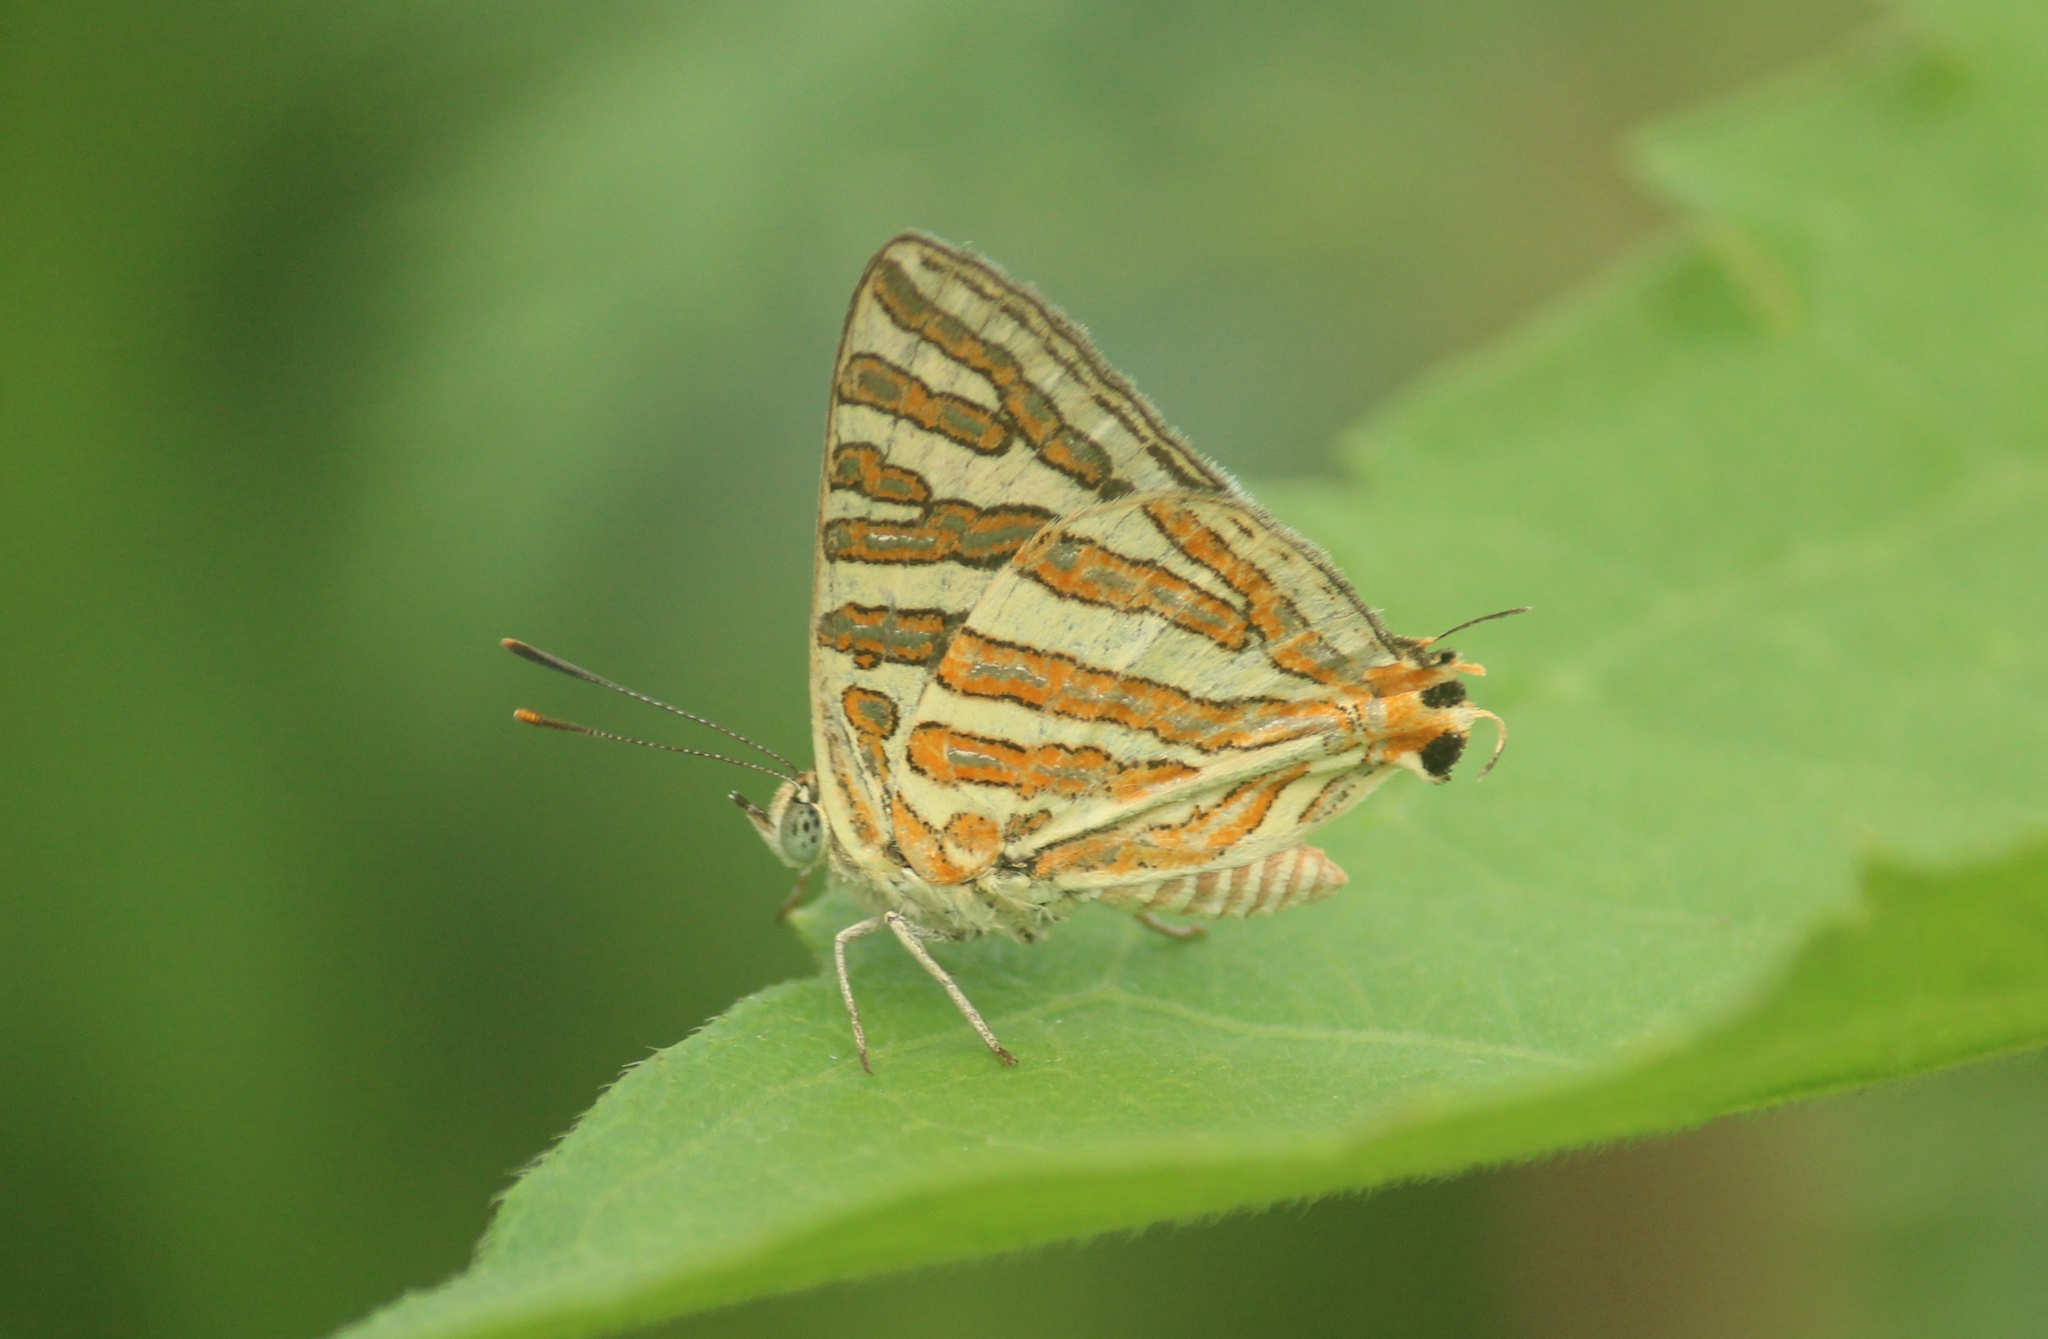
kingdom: Animalia
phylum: Arthropoda
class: Insecta
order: Lepidoptera
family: Lycaenidae
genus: Cigaritis
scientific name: Cigaritis vulcanus
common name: Common silverline
